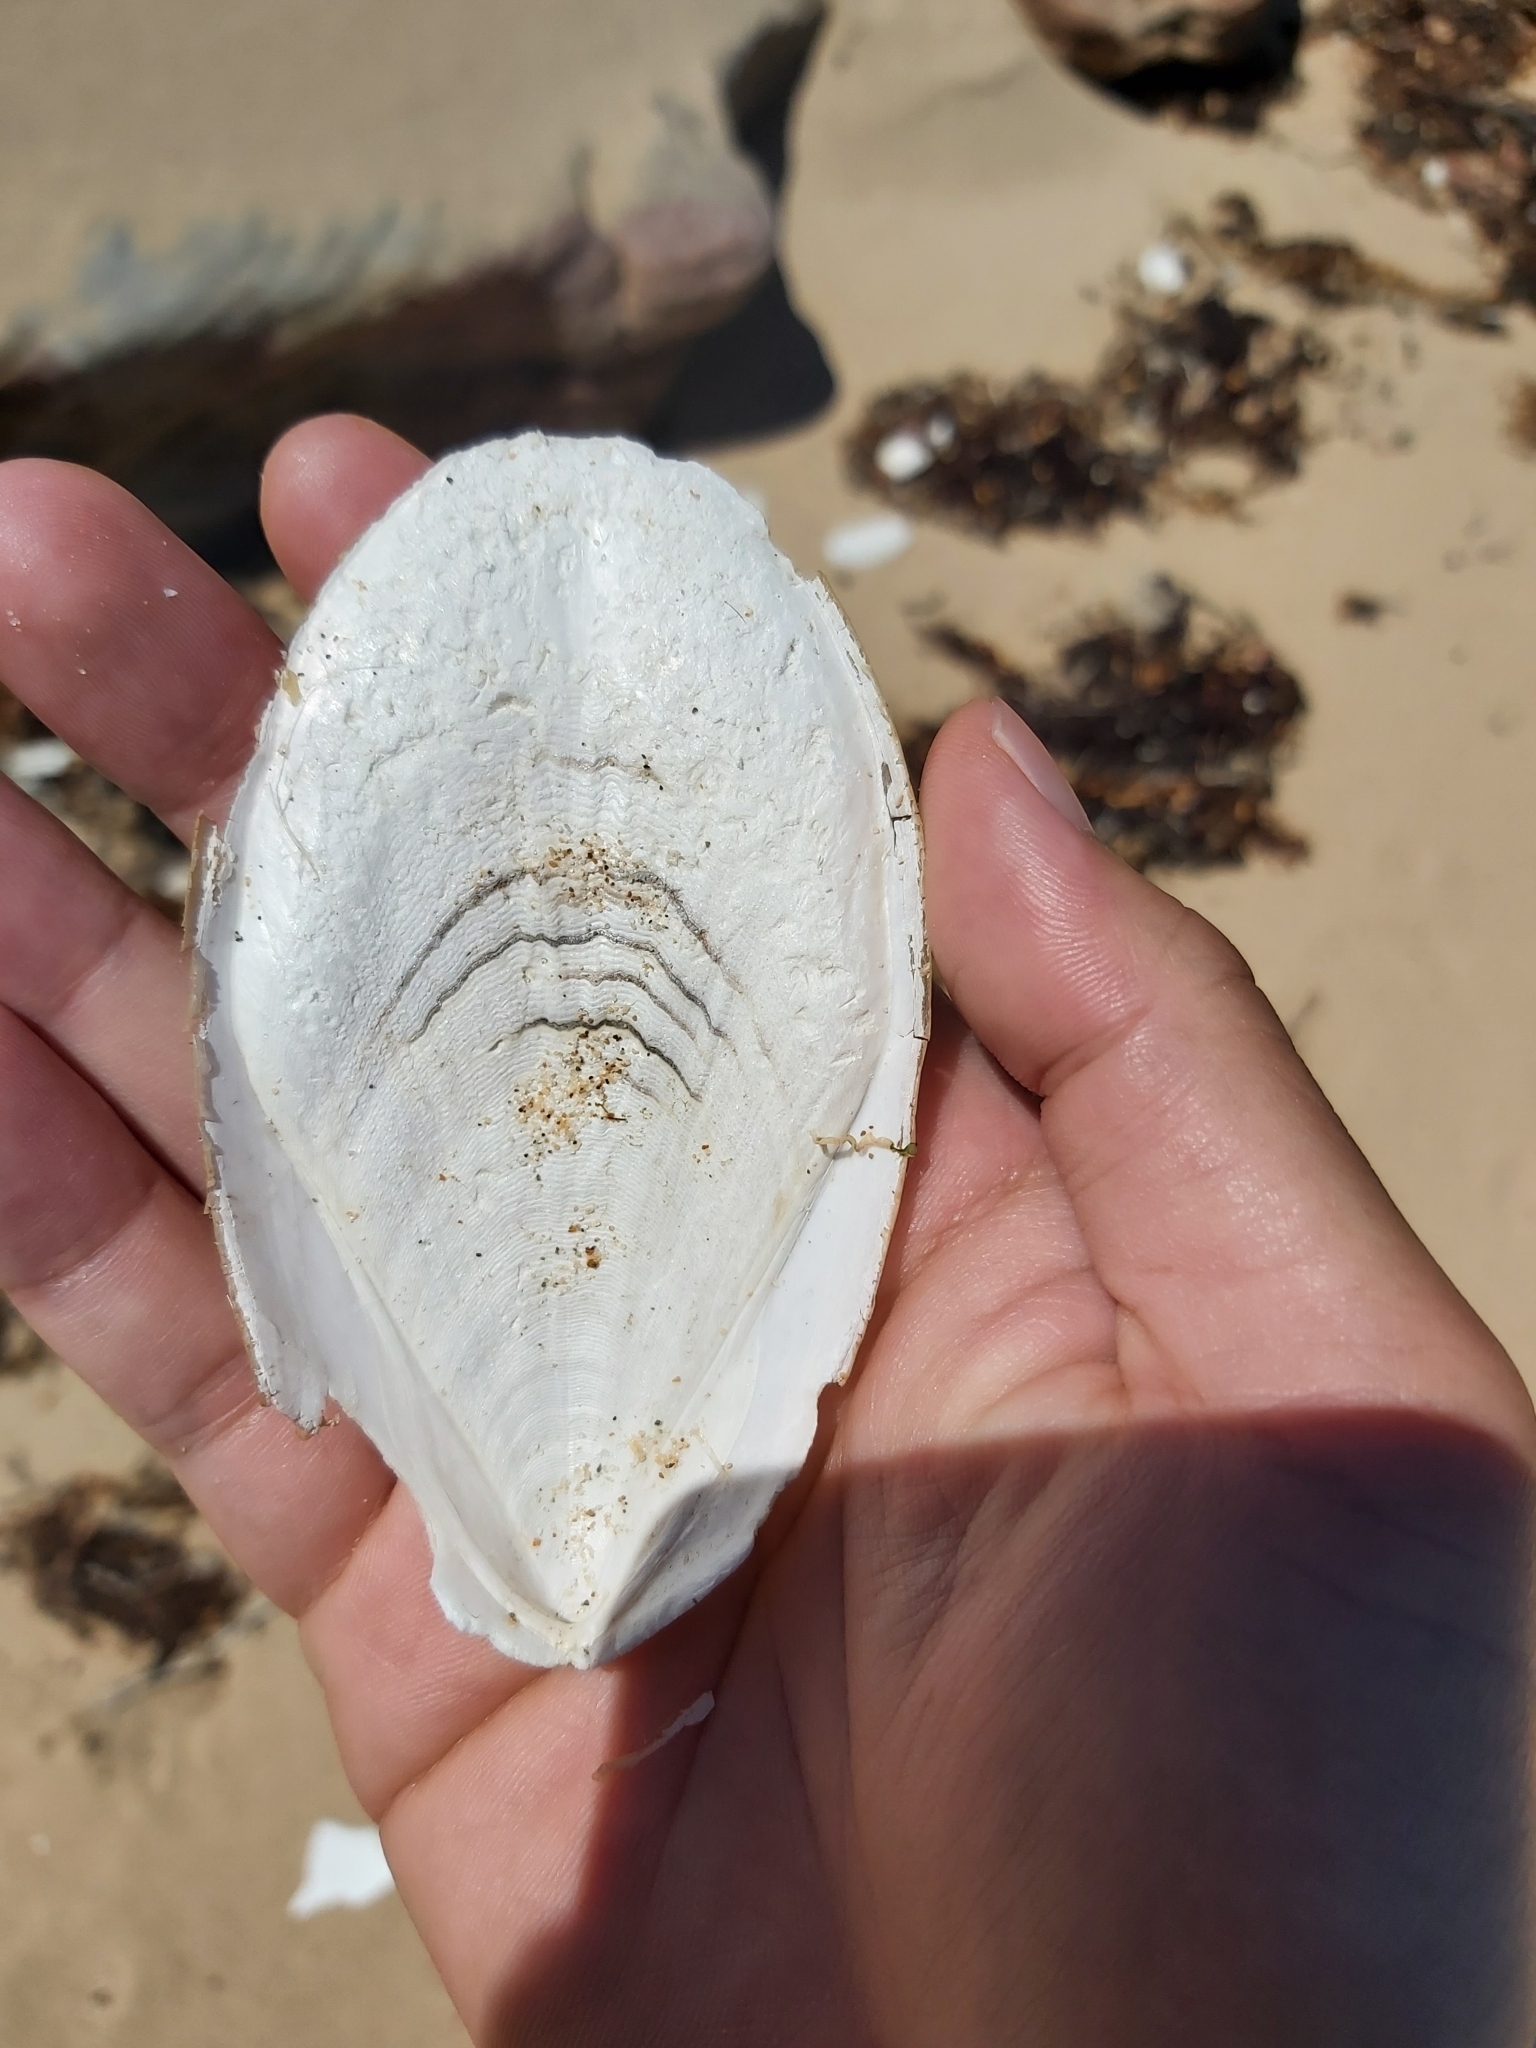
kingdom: Animalia
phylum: Mollusca
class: Cephalopoda
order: Sepiida
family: Sepiidae
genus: Ascarosepion
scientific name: Ascarosepion mestus
